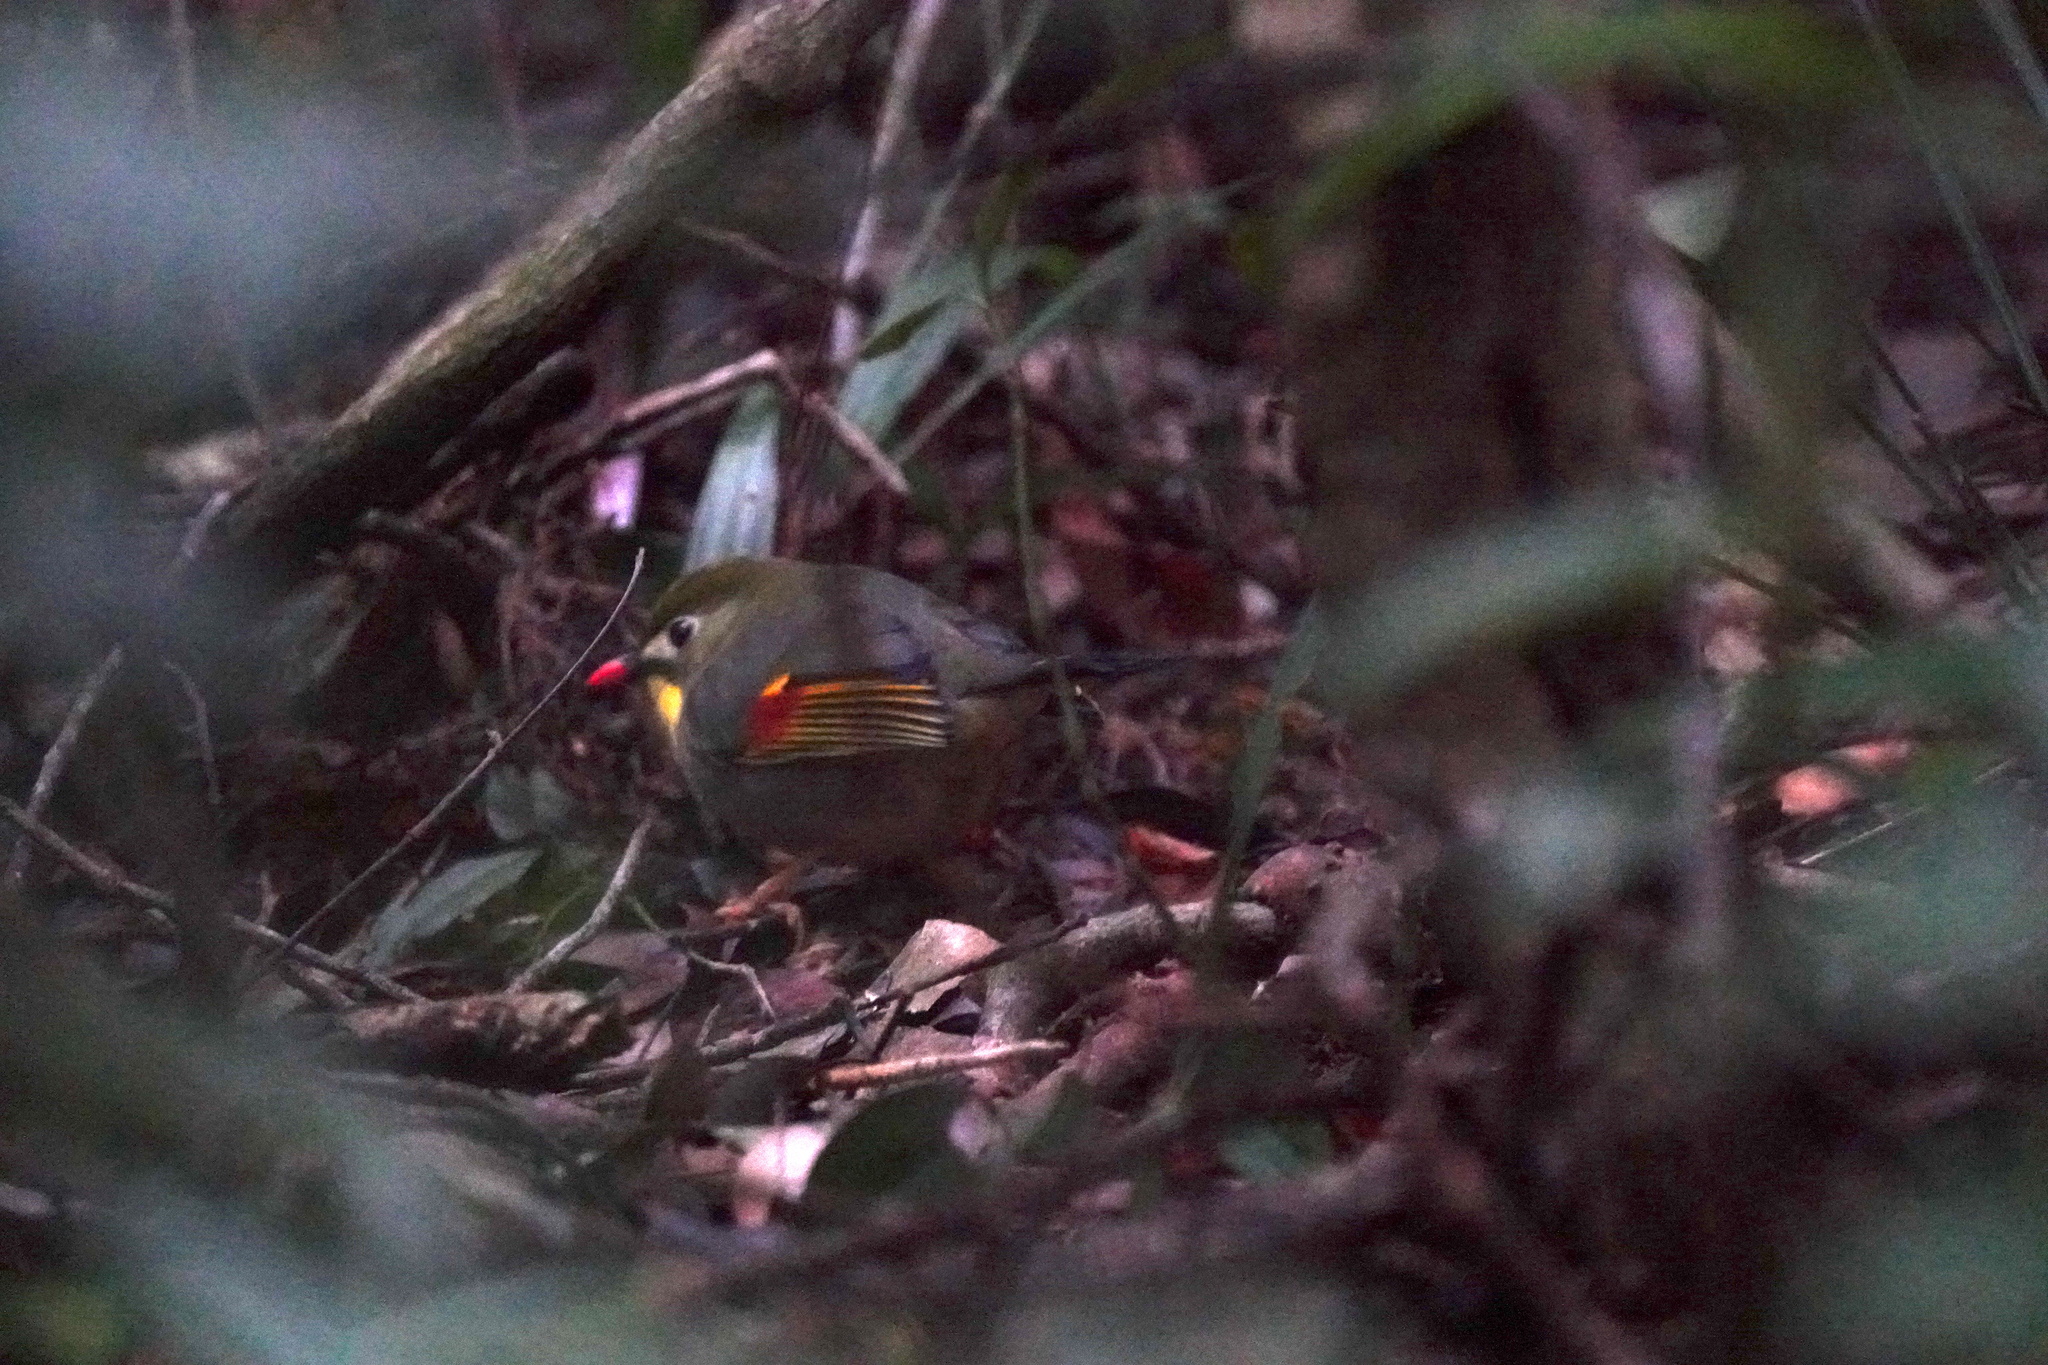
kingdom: Animalia
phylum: Chordata
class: Aves
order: Passeriformes
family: Leiothrichidae
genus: Leiothrix
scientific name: Leiothrix lutea
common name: Red-billed leiothrix
